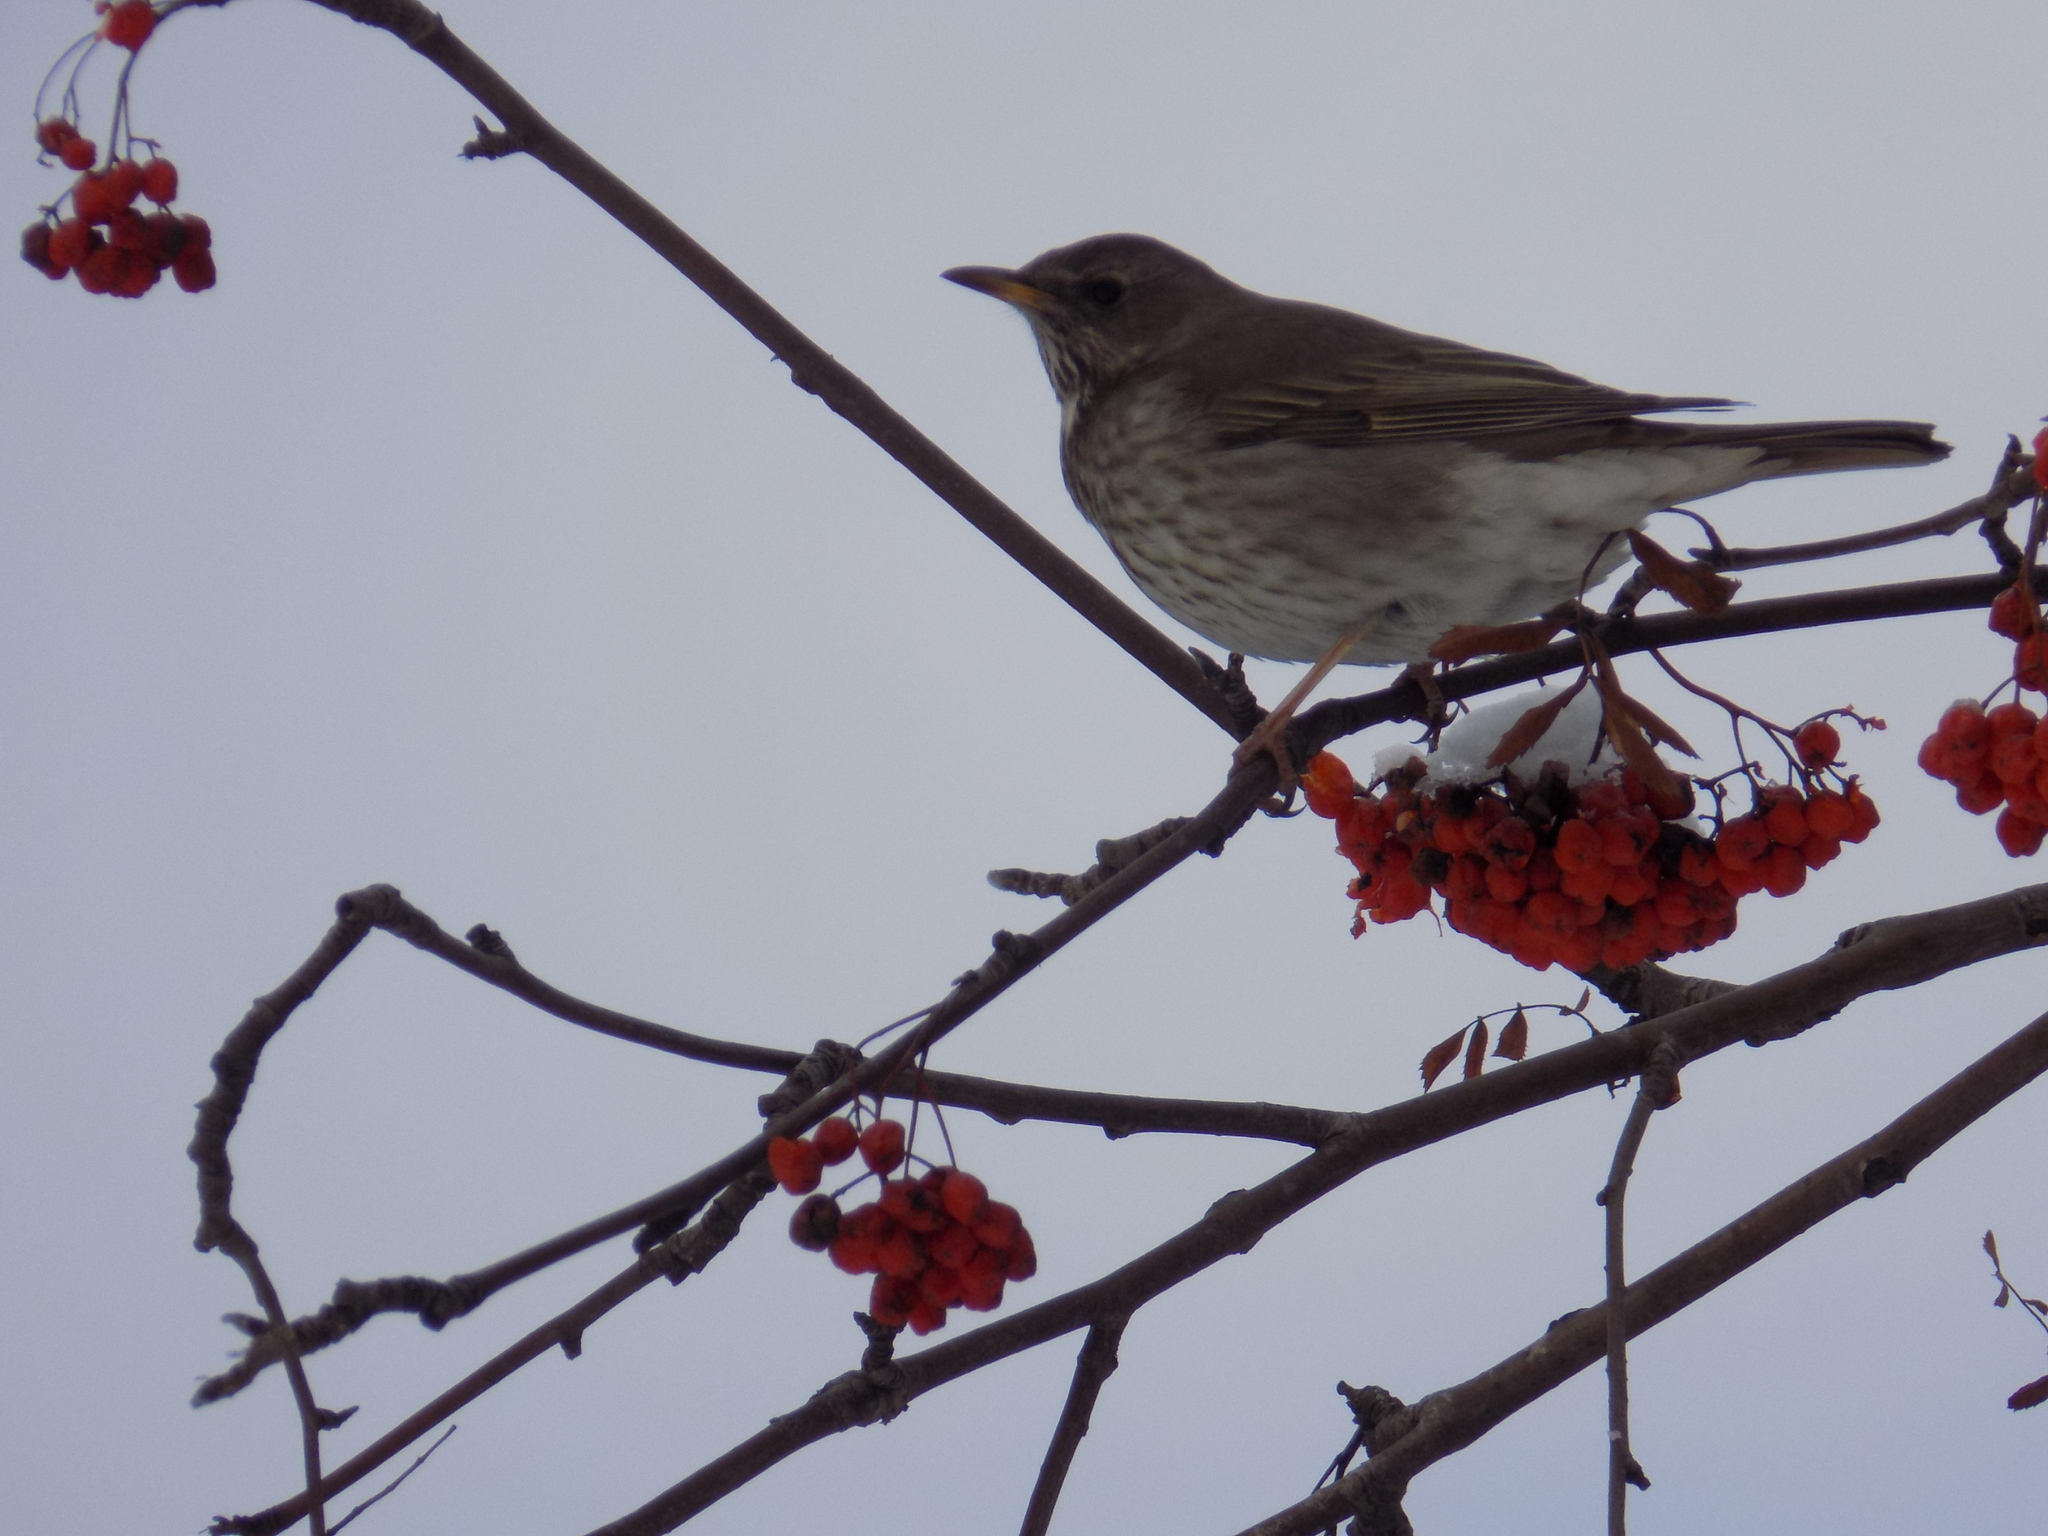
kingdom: Animalia
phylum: Chordata
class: Aves
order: Passeriformes
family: Turdidae
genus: Turdus
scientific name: Turdus atrogularis
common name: Black-throated thrush
